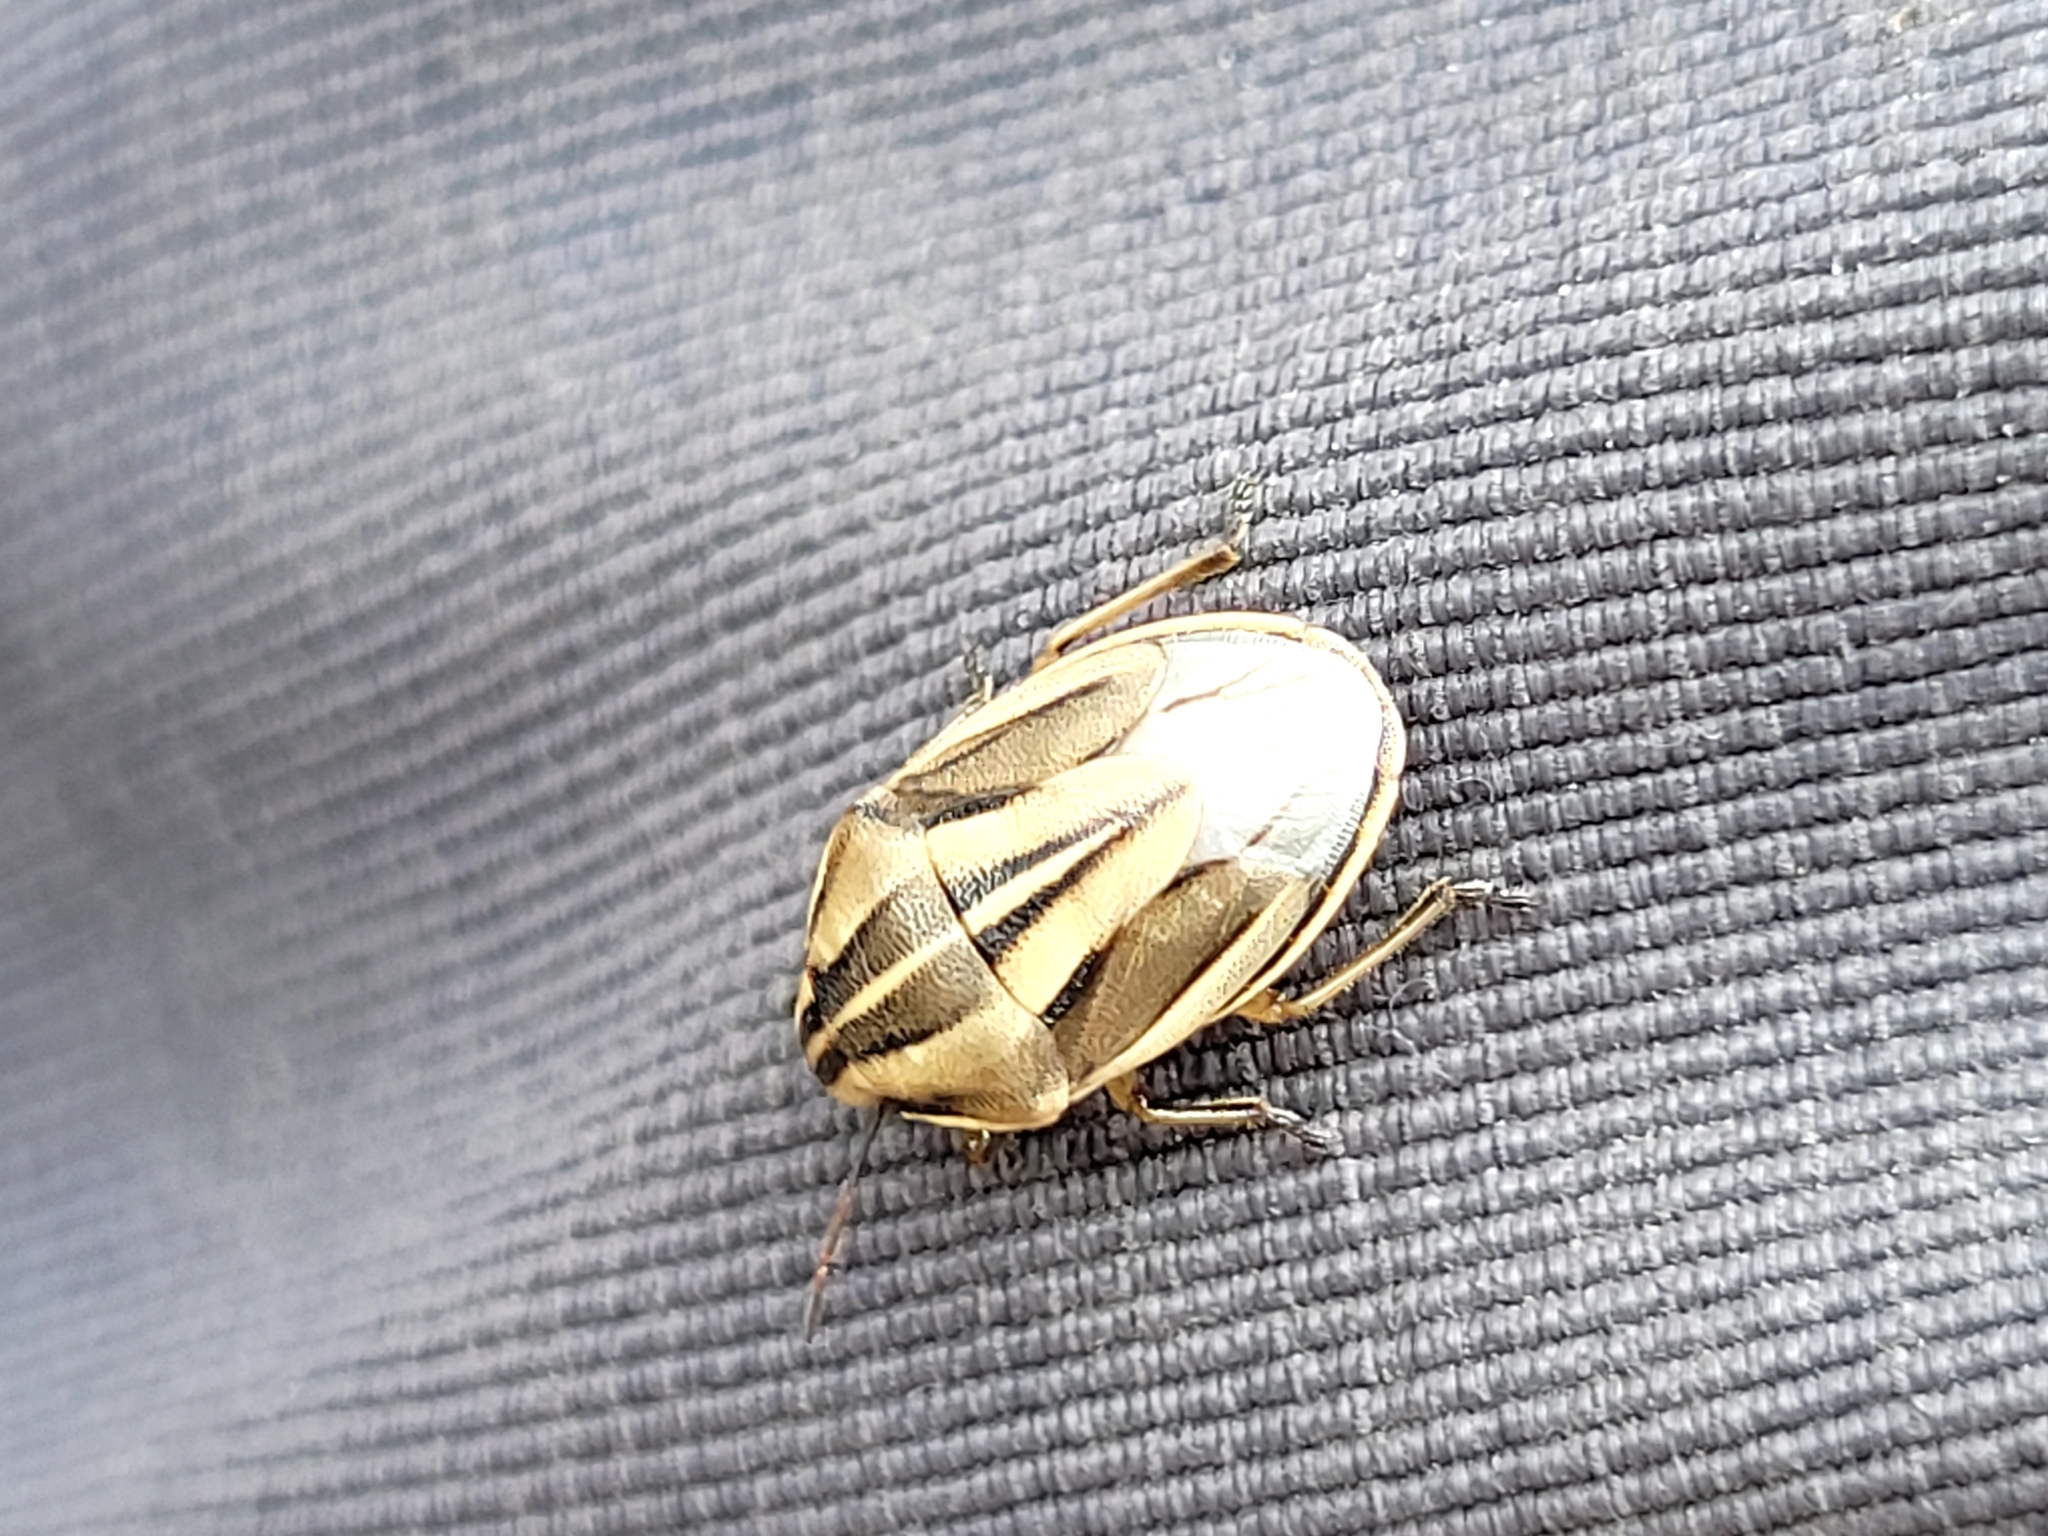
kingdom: Animalia
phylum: Arthropoda
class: Insecta
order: Hemiptera
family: Pentatomidae
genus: Aelia
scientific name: Aelia americana
